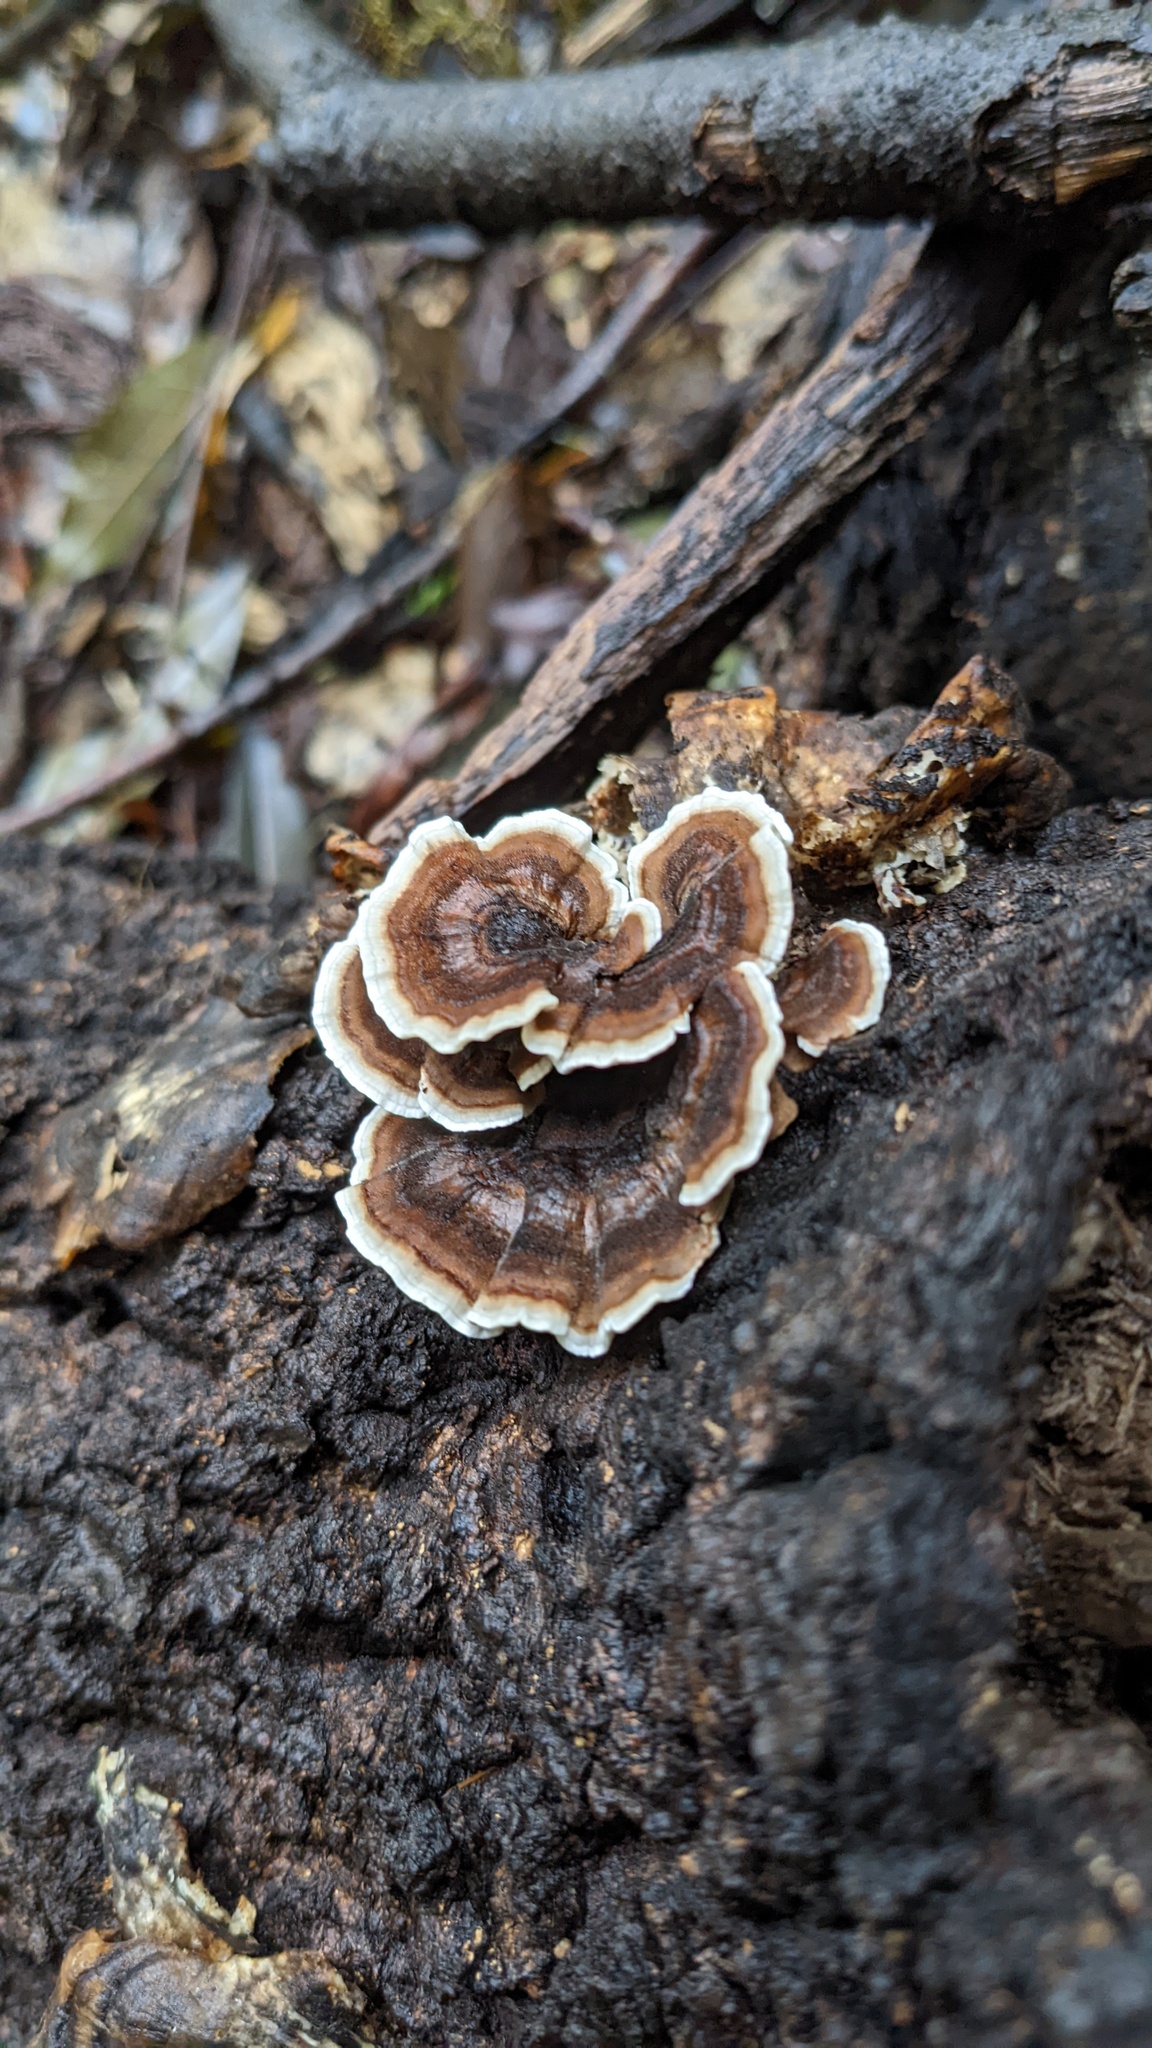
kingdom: Fungi
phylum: Basidiomycota
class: Agaricomycetes
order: Polyporales
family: Polyporaceae
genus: Trametes
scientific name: Trametes versicolor
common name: Turkeytail
